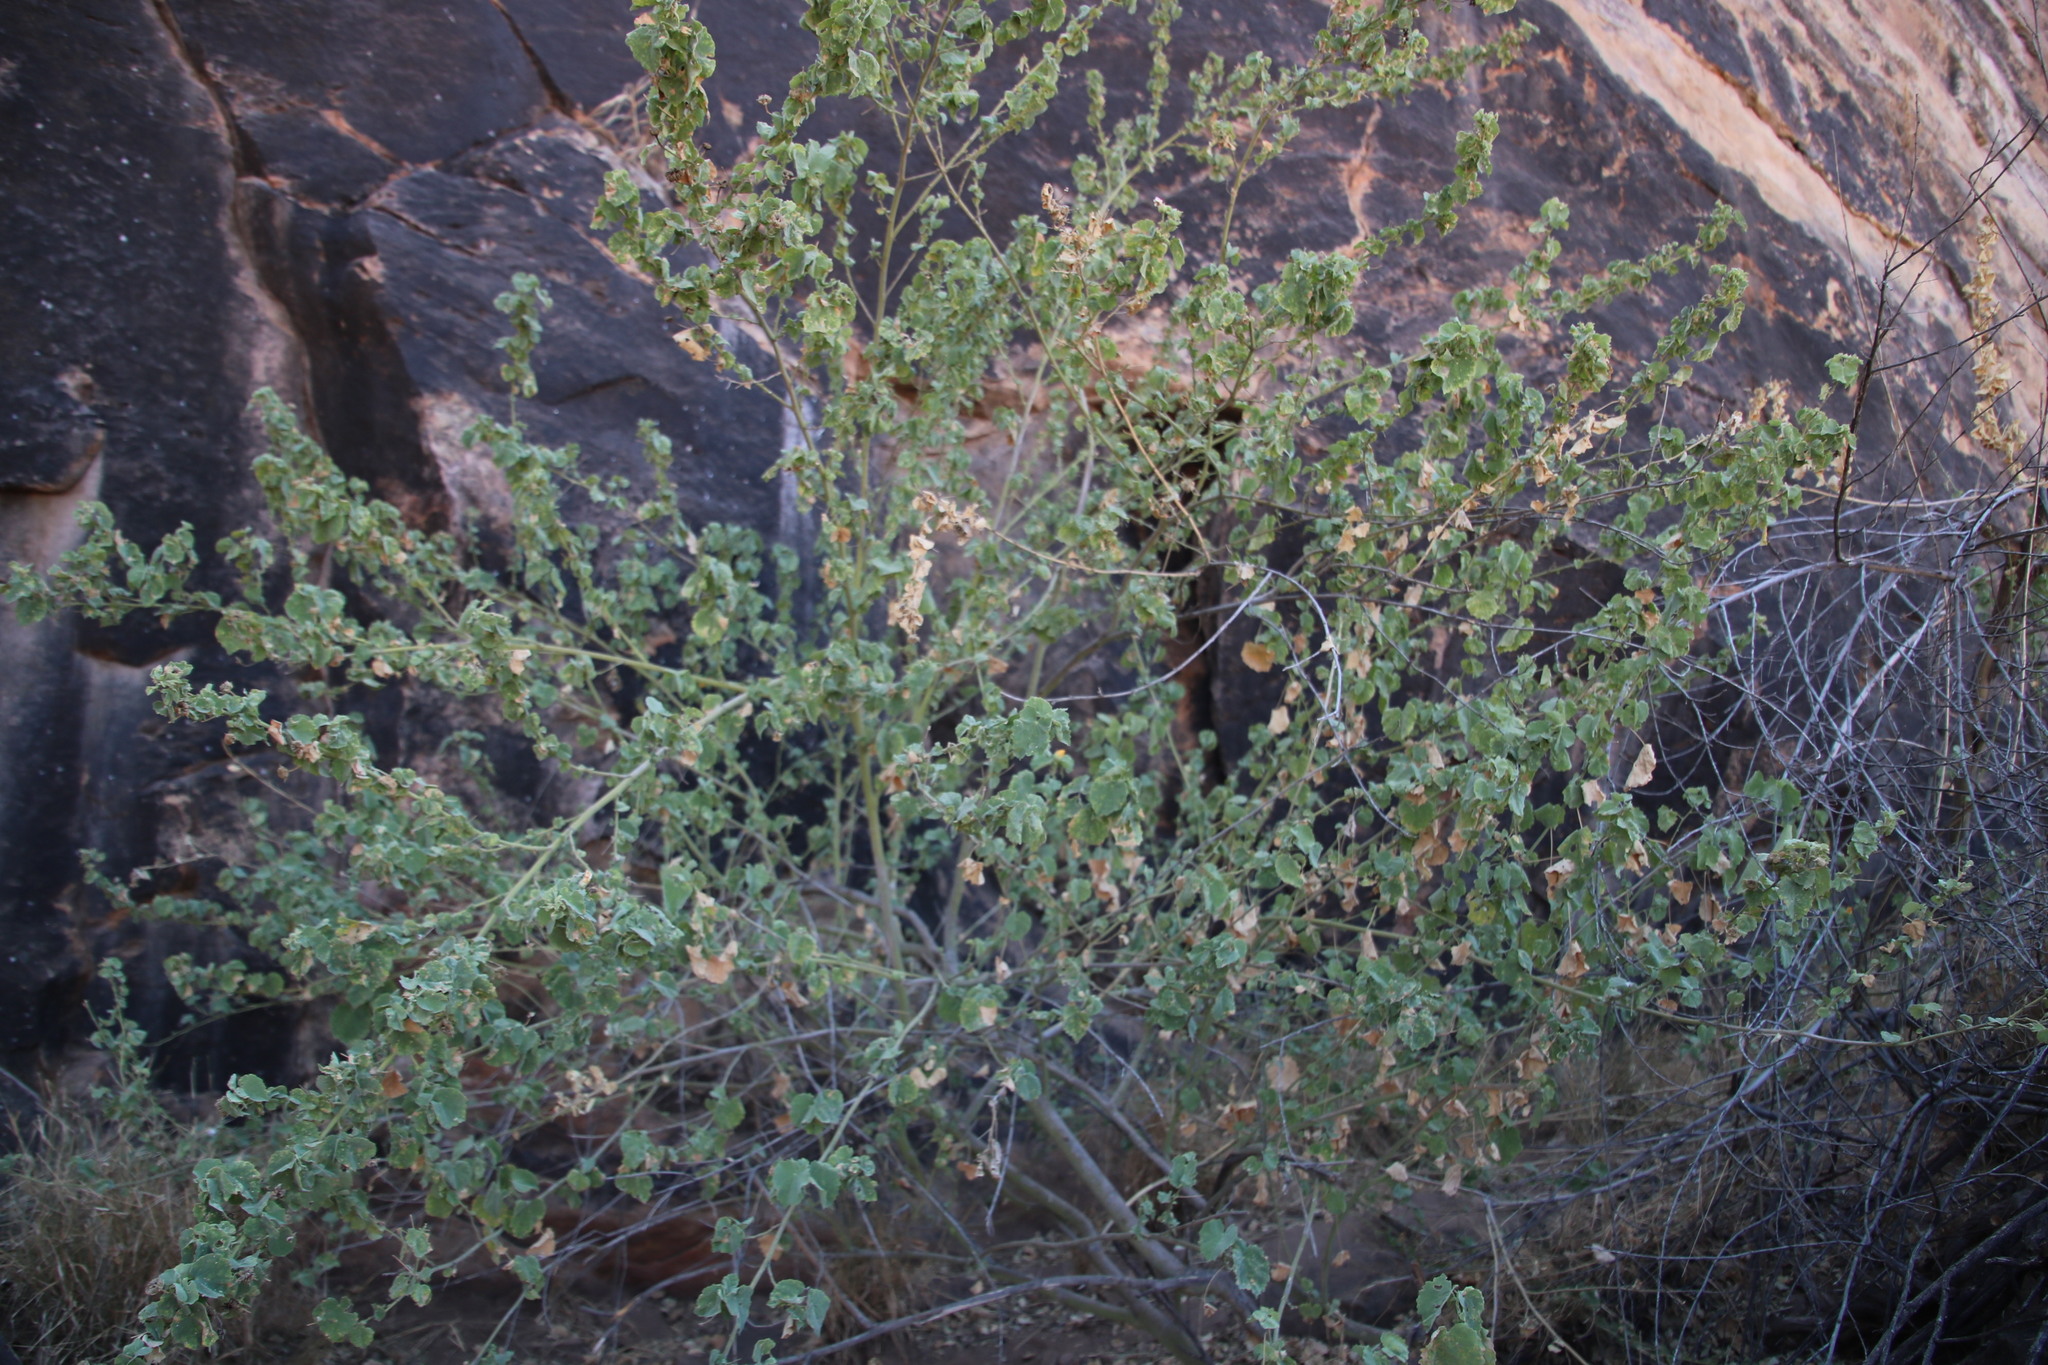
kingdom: Plantae
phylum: Tracheophyta
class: Magnoliopsida
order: Malvales
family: Malvaceae
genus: Abutilon
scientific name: Abutilon pycnodon
